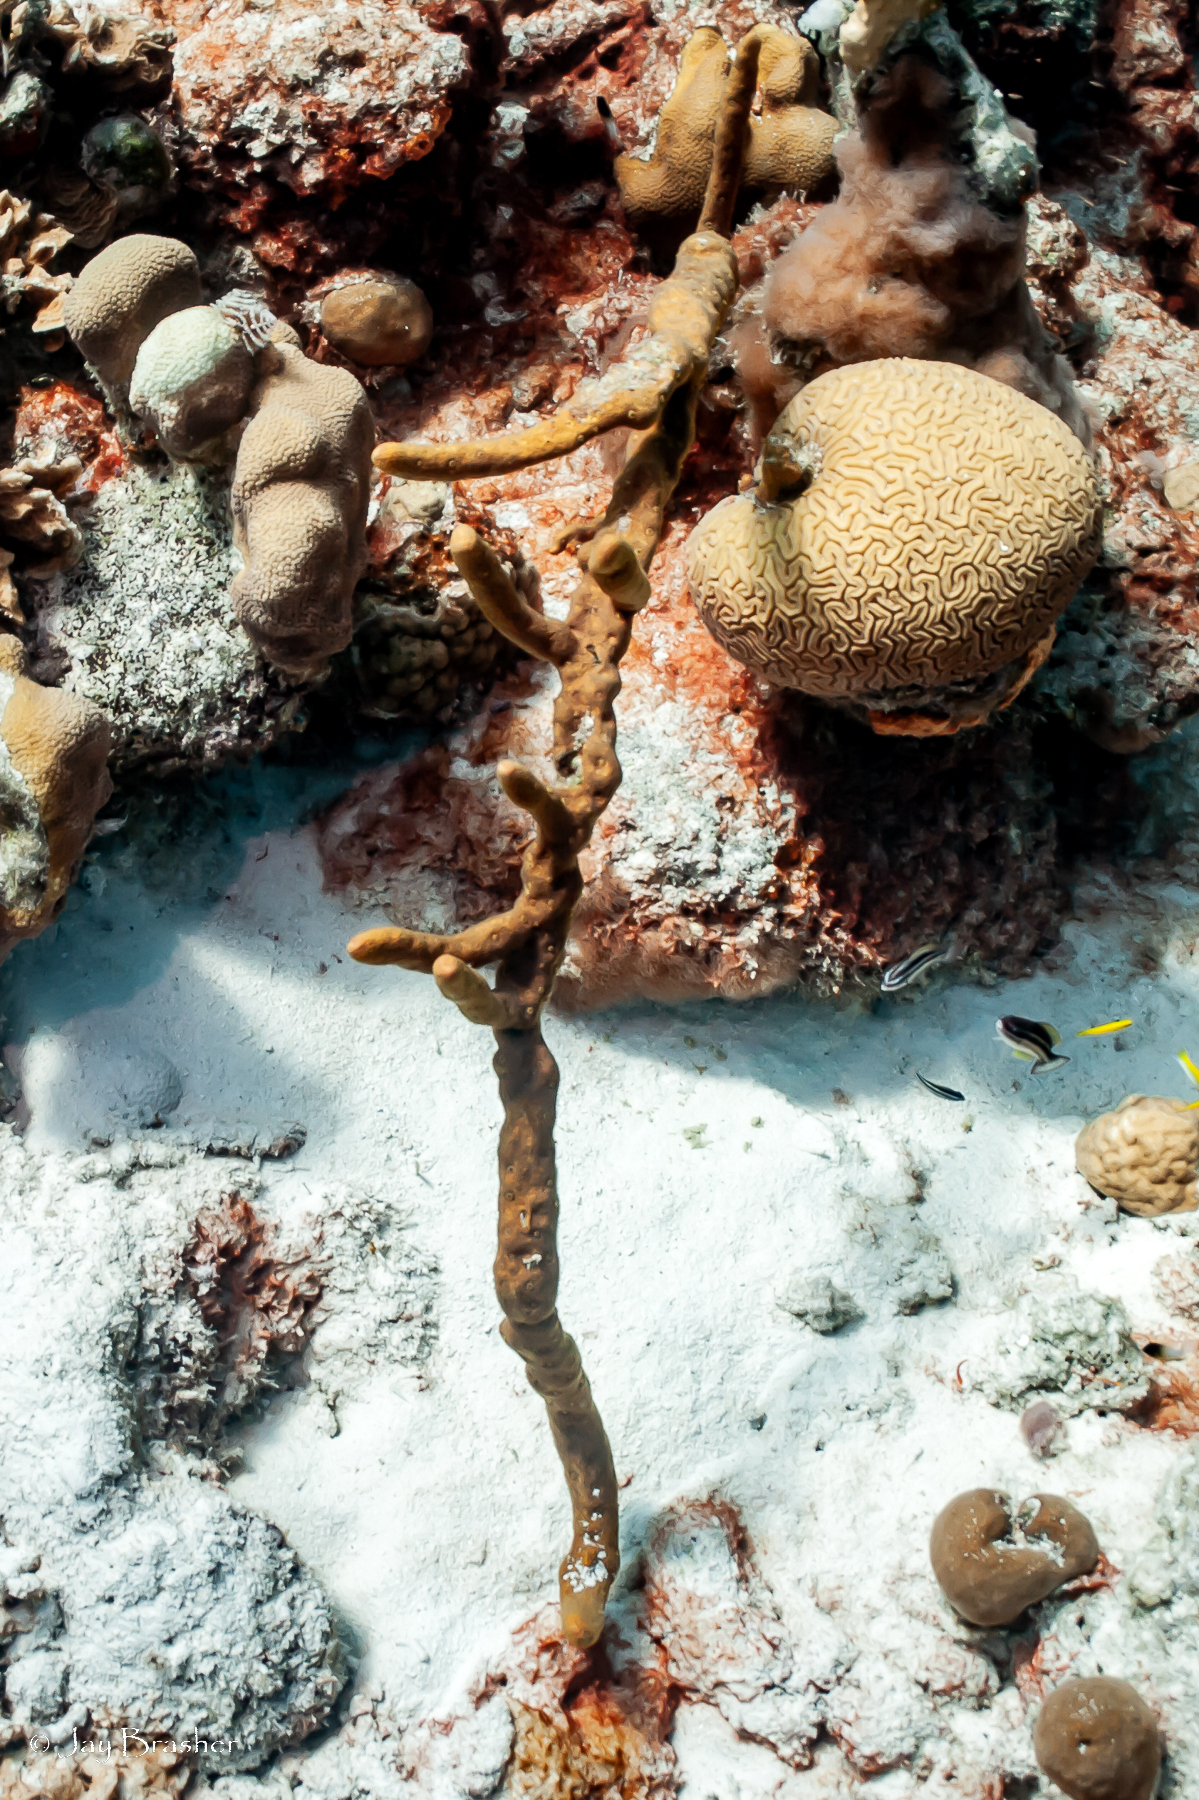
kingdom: Animalia
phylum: Cnidaria
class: Anthozoa
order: Scleractinia
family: Faviidae
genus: Diploria
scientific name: Diploria labyrinthiformis
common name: Grooved brain coral
